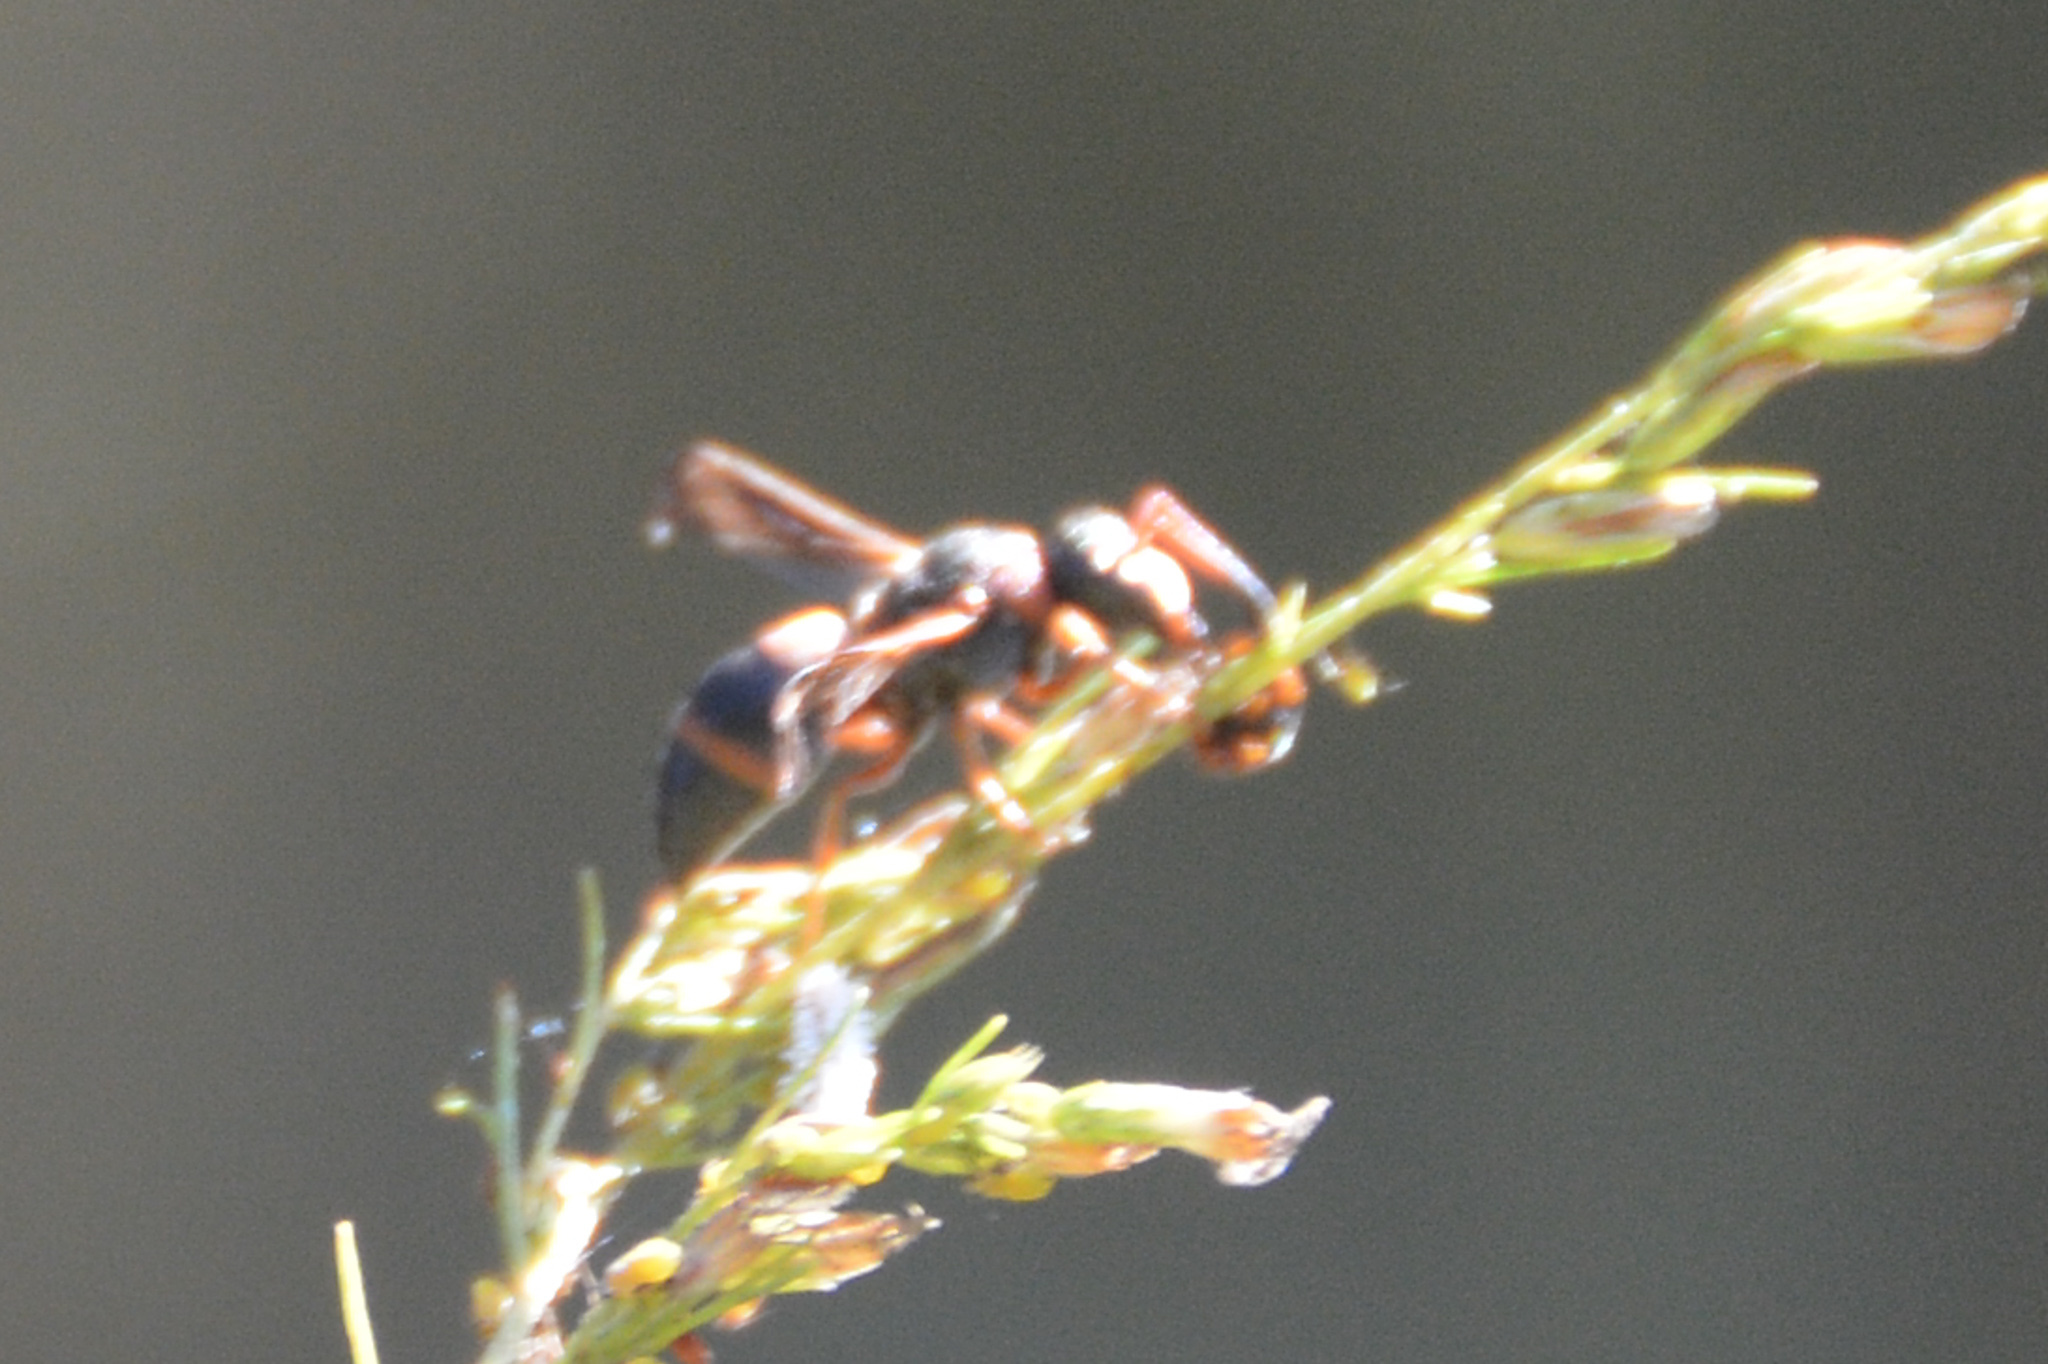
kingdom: Animalia
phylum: Arthropoda
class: Insecta
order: Hymenoptera
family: Eumenidae
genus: Pachodynerus
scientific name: Pachodynerus erynnis
